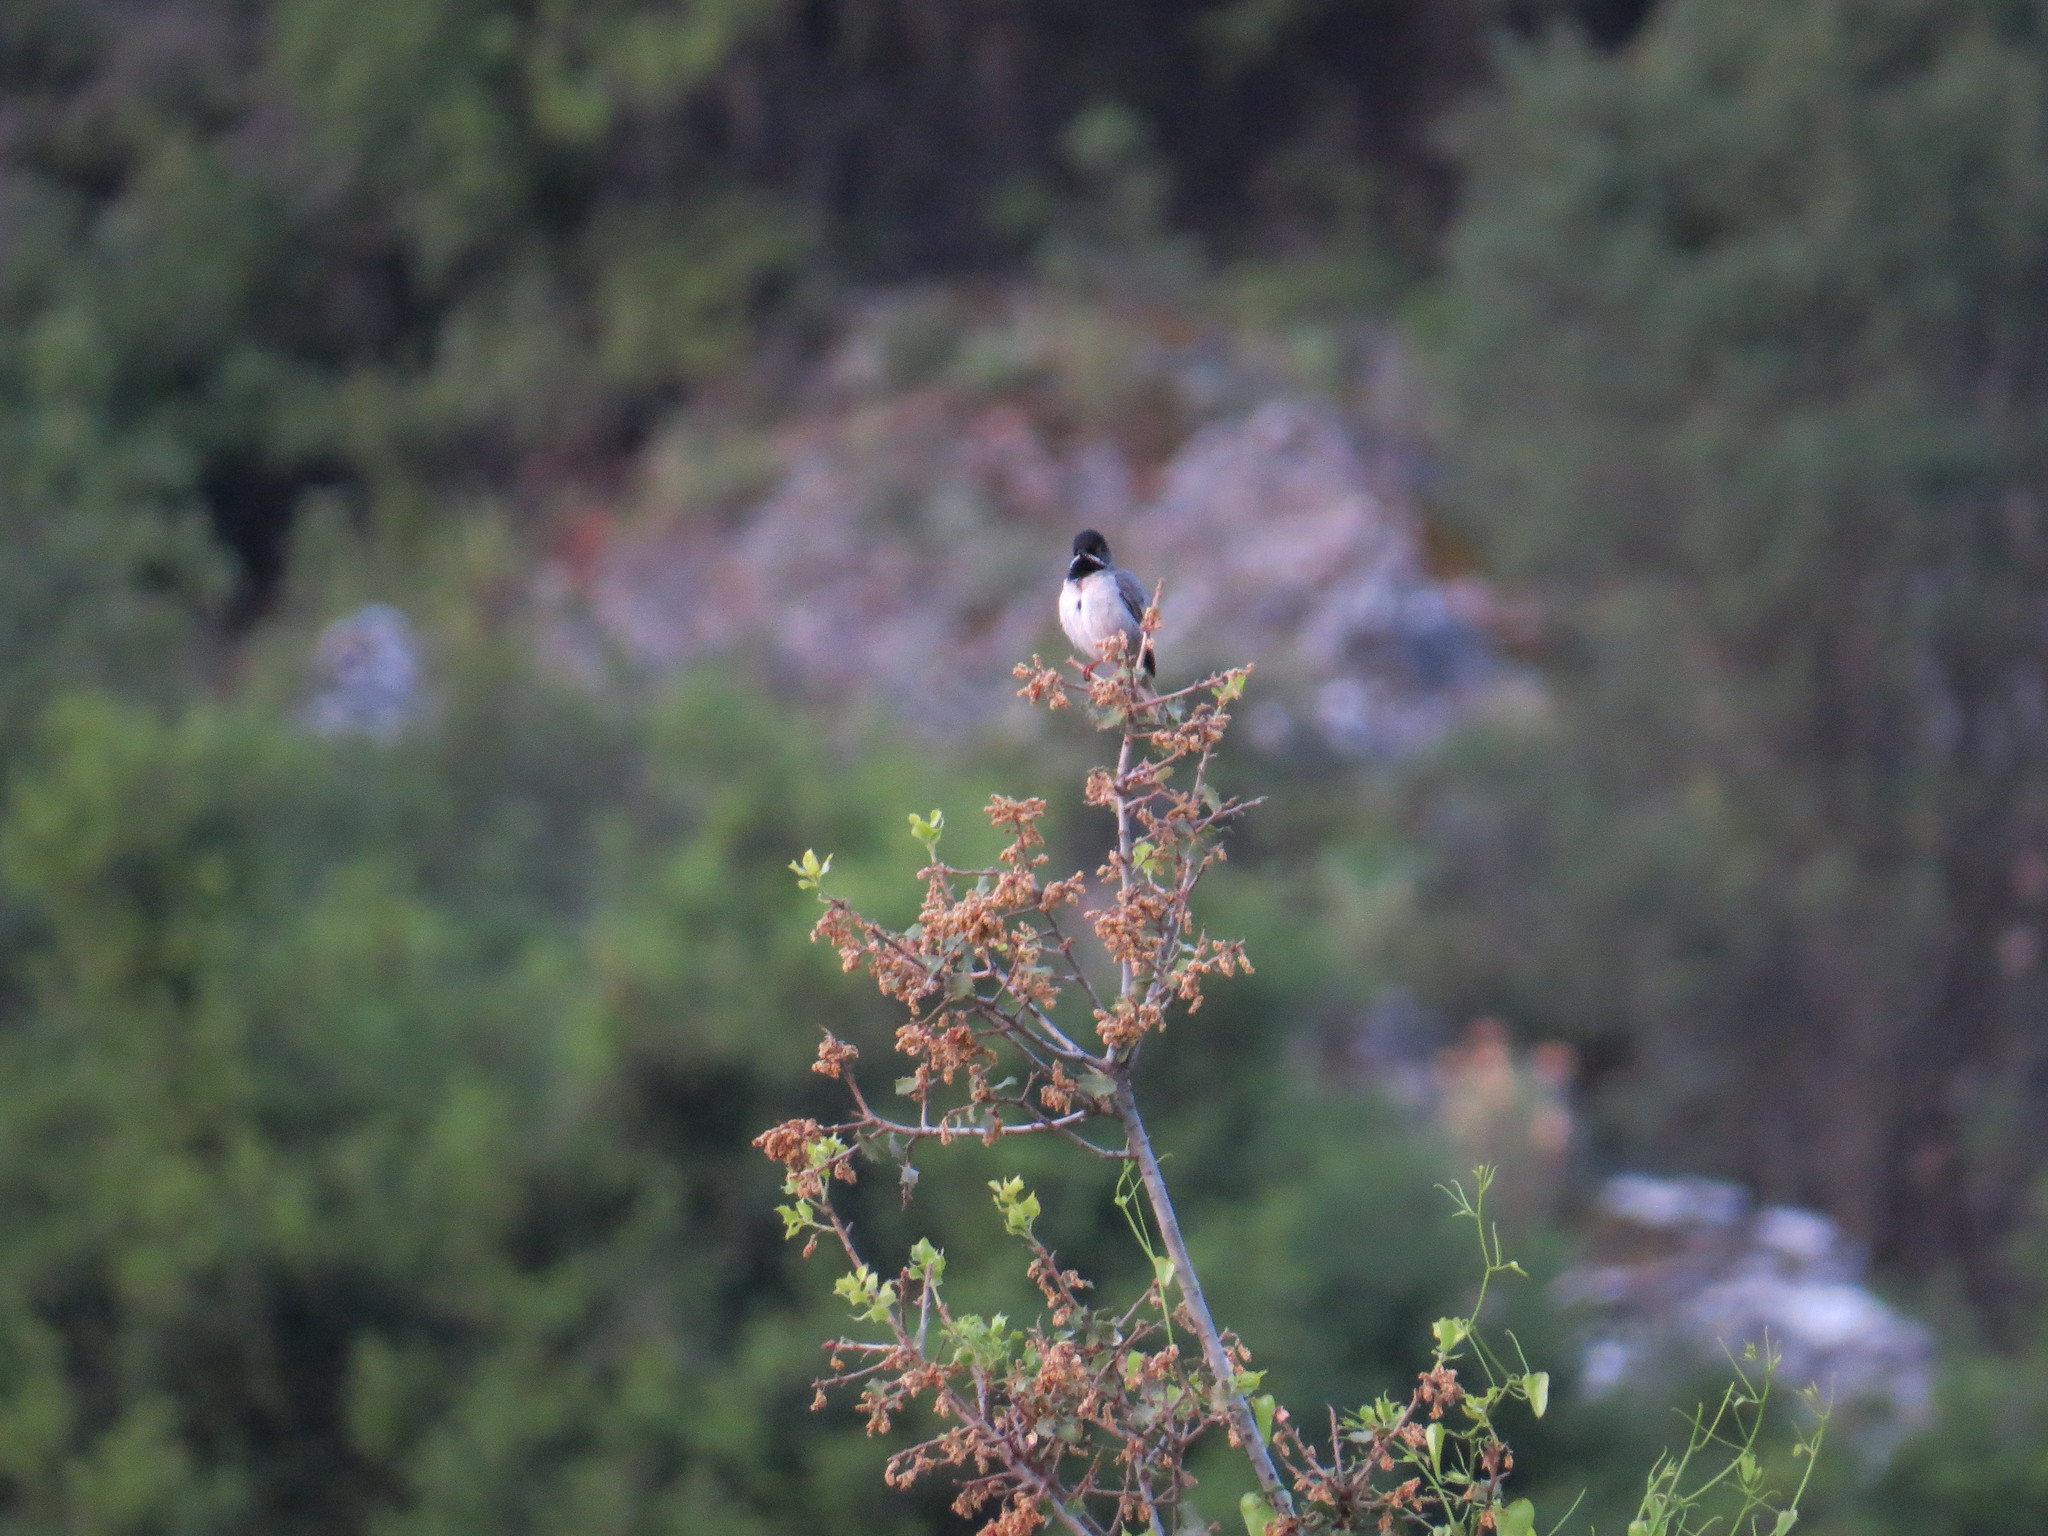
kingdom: Animalia
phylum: Chordata
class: Aves
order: Passeriformes
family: Sylviidae
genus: Sylvia
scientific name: Sylvia ruppeli
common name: Rüppell's warbler
